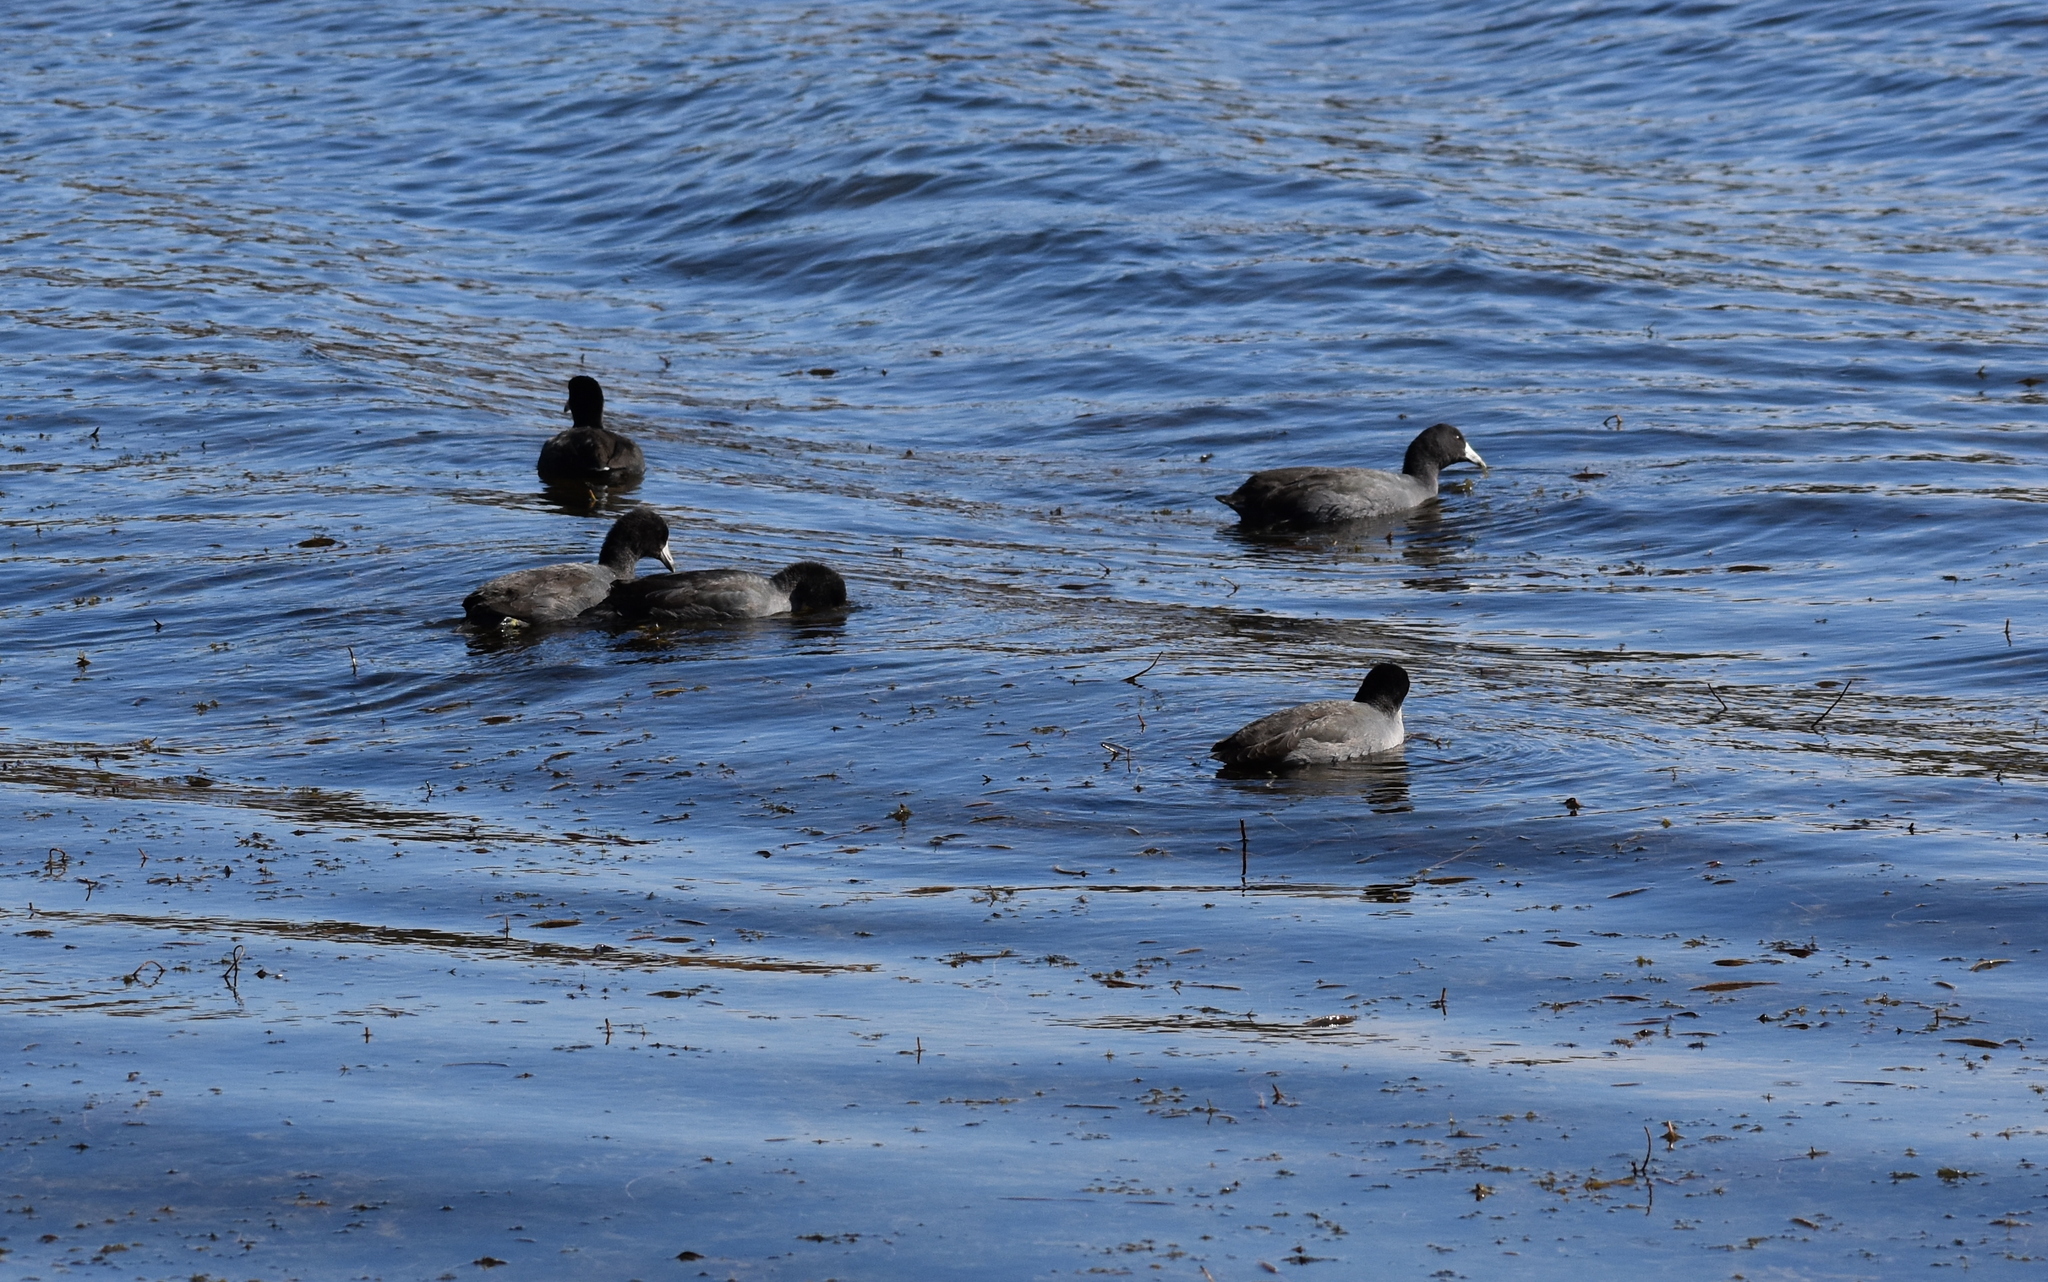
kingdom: Animalia
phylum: Chordata
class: Aves
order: Gruiformes
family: Rallidae
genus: Fulica
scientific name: Fulica americana
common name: American coot
